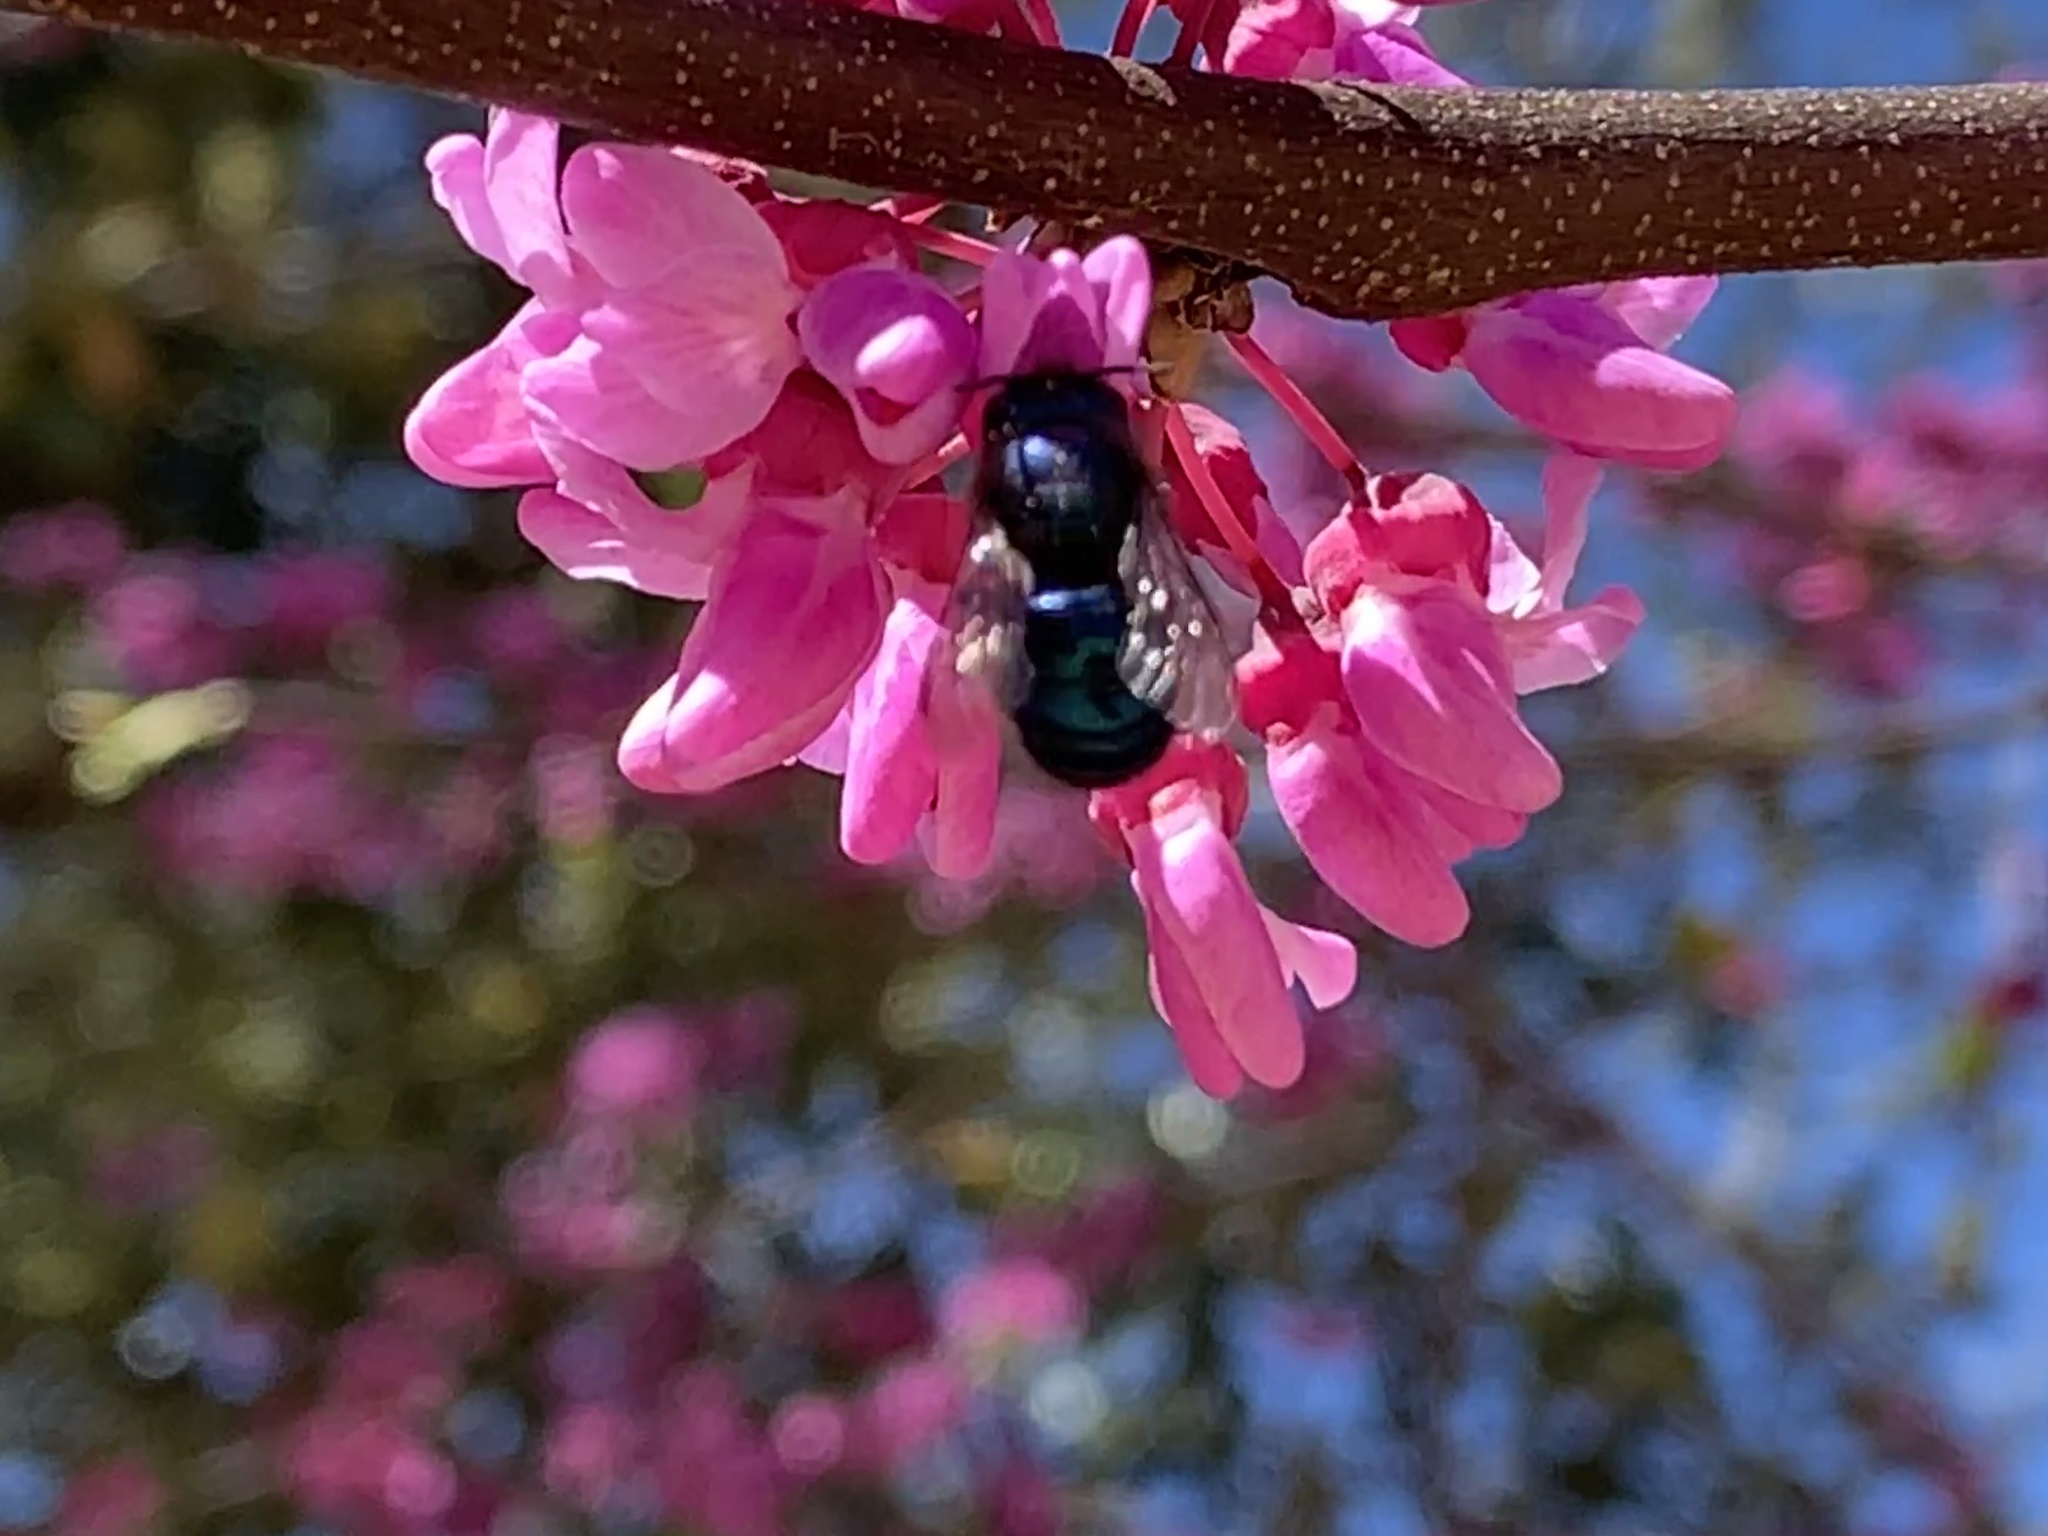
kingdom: Animalia
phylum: Arthropoda
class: Insecta
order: Hymenoptera
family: Megachilidae
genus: Osmia
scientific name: Osmia ribifloris
